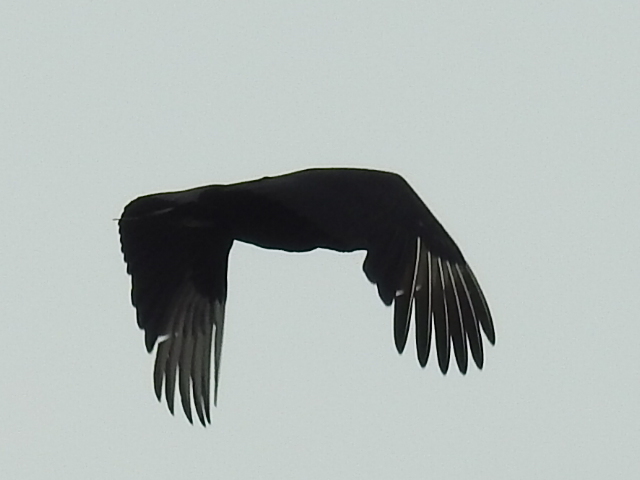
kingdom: Animalia
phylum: Chordata
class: Aves
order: Accipitriformes
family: Cathartidae
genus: Coragyps
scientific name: Coragyps atratus
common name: Black vulture
